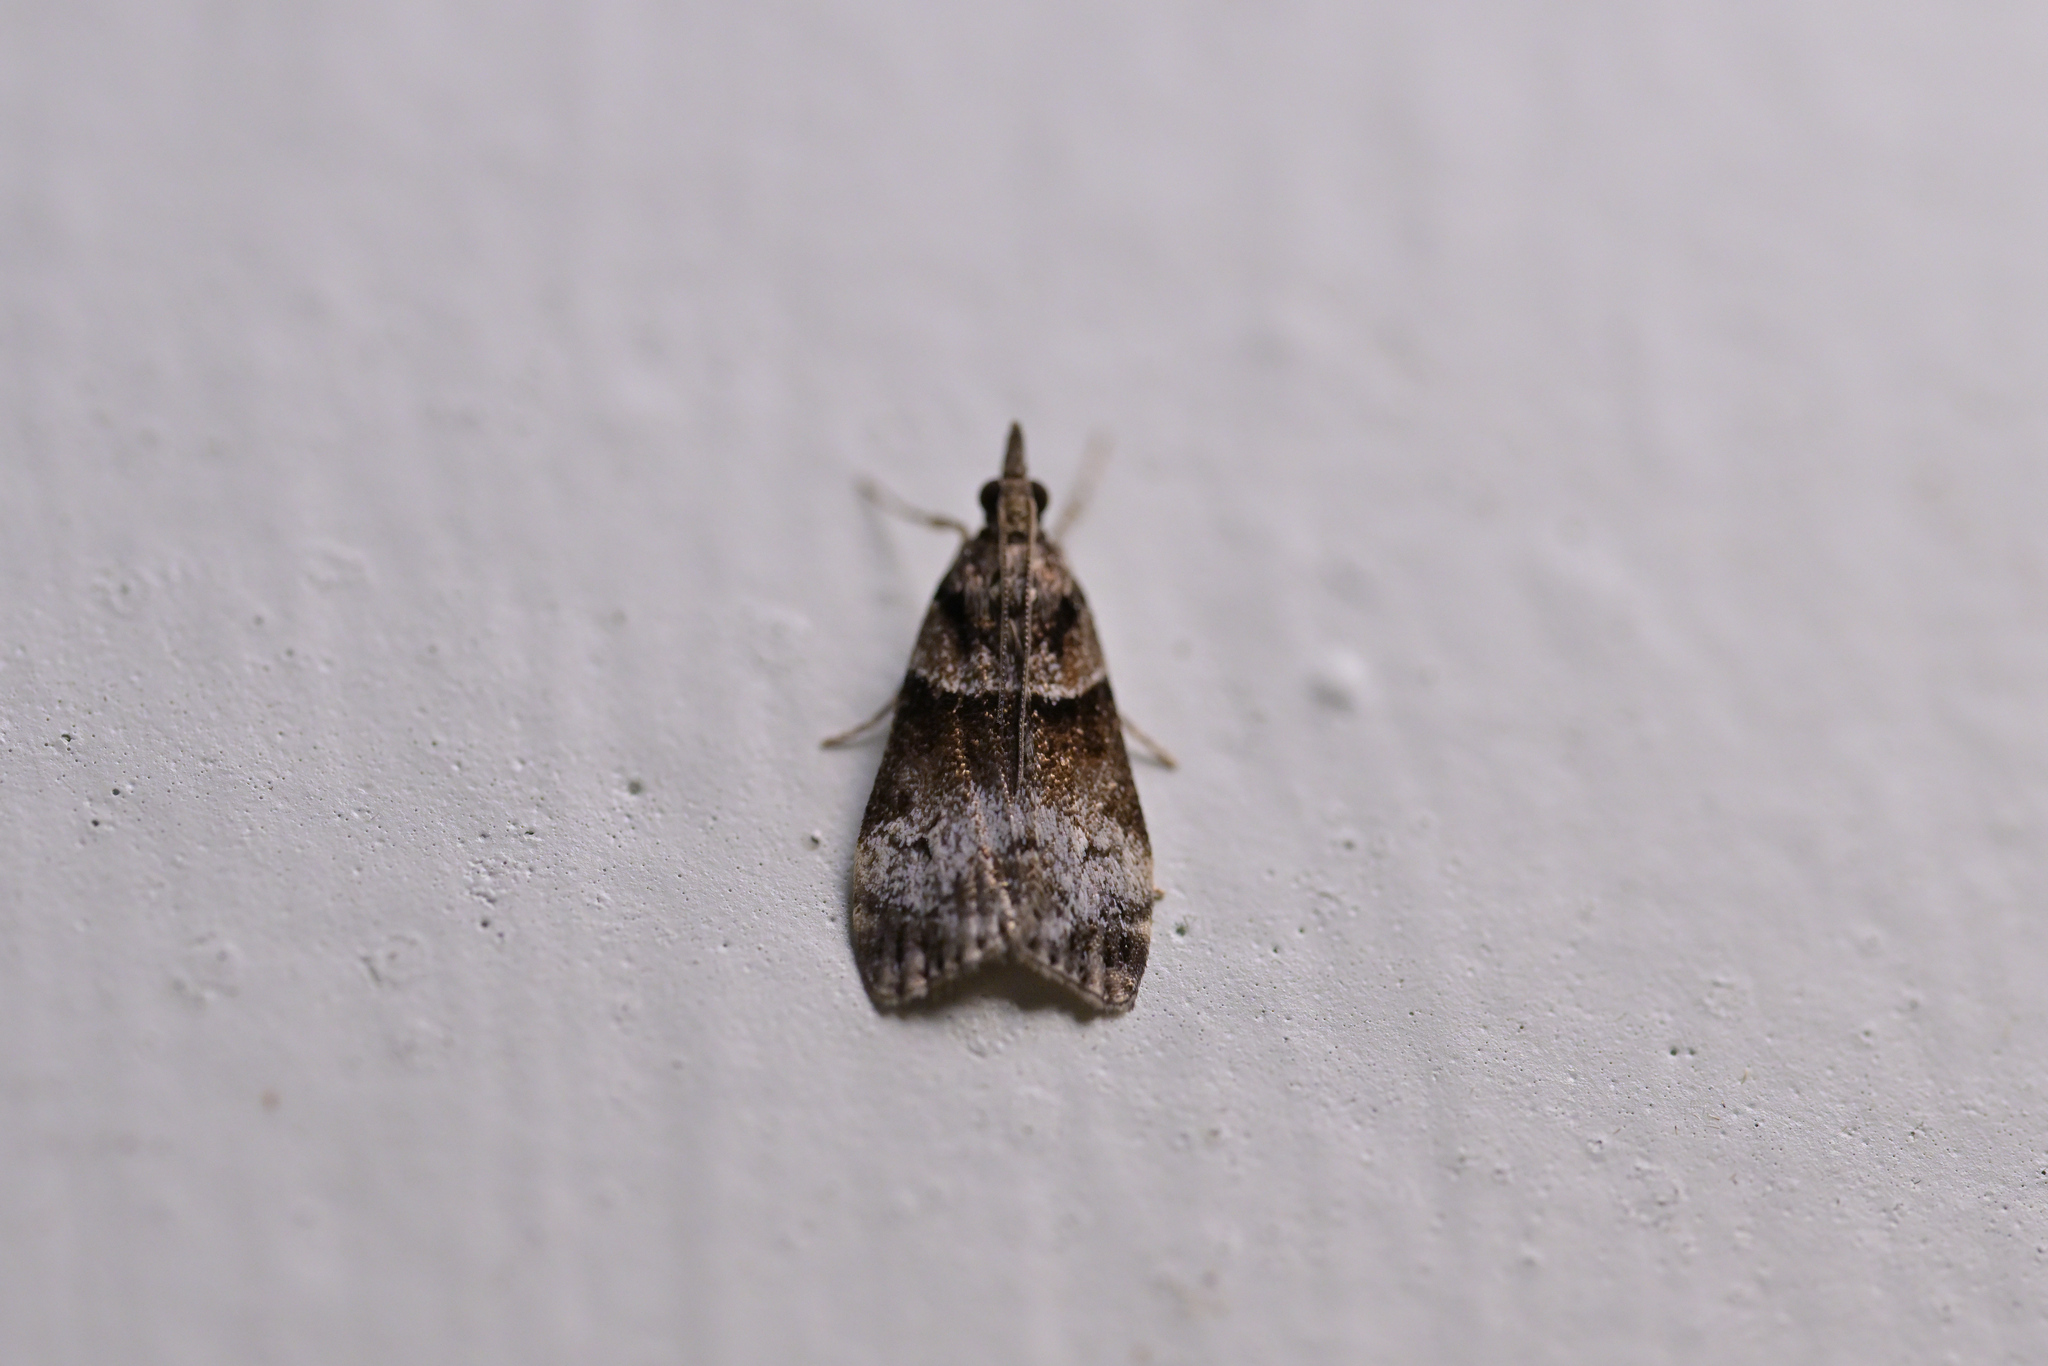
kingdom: Animalia
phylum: Arthropoda
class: Insecta
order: Lepidoptera
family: Crambidae
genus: Eudonia
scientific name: Eudonia colpota
